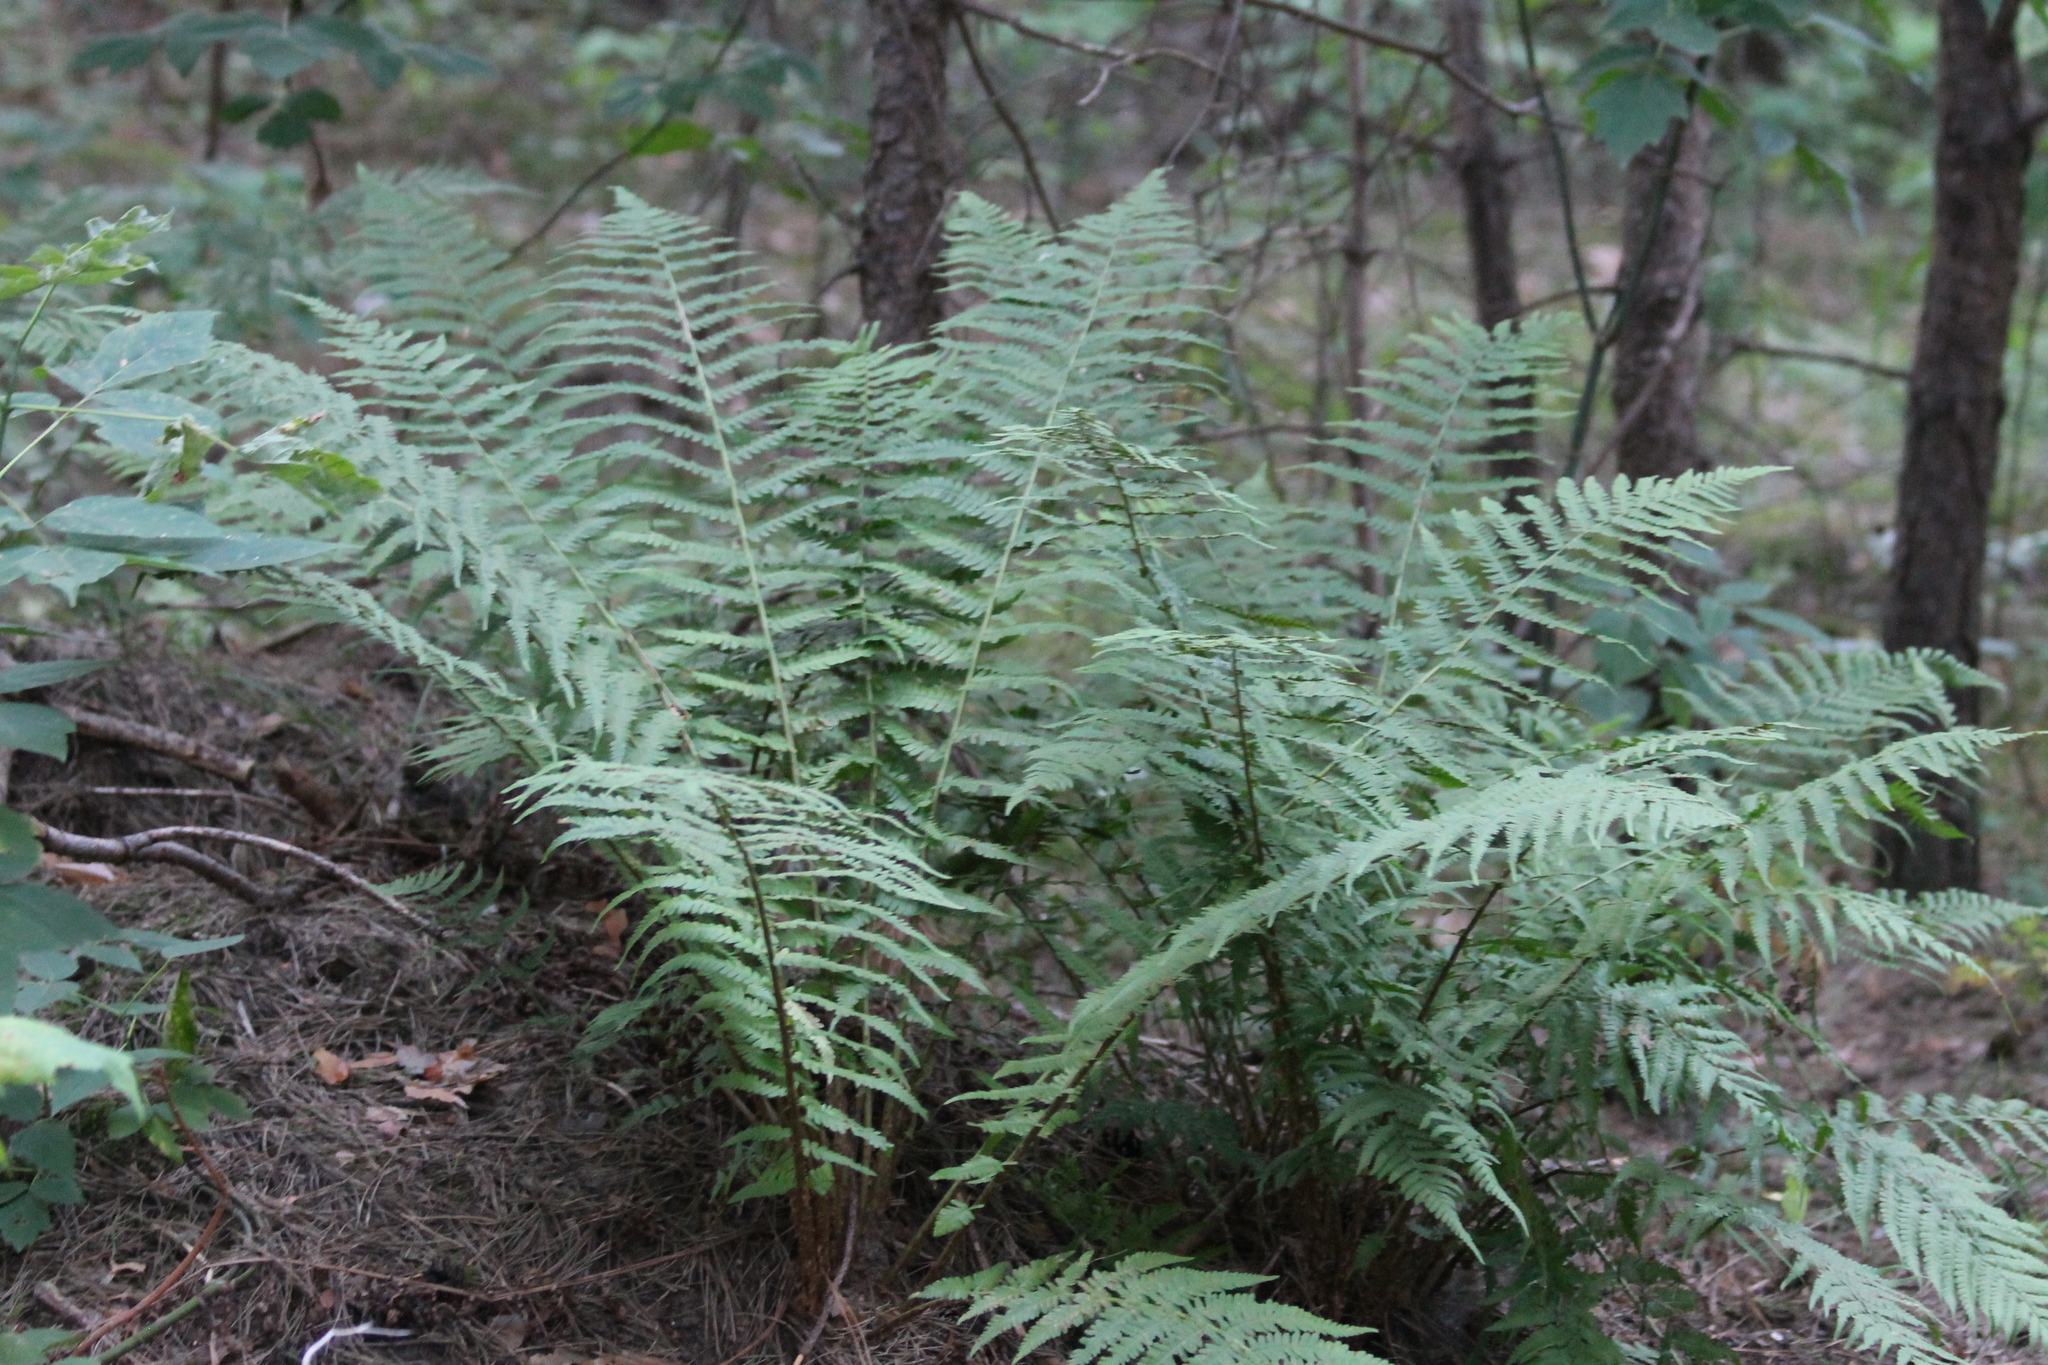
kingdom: Plantae
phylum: Tracheophyta
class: Polypodiopsida
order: Polypodiales
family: Dryopteridaceae
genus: Dryopteris
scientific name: Dryopteris filix-mas
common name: Male fern
